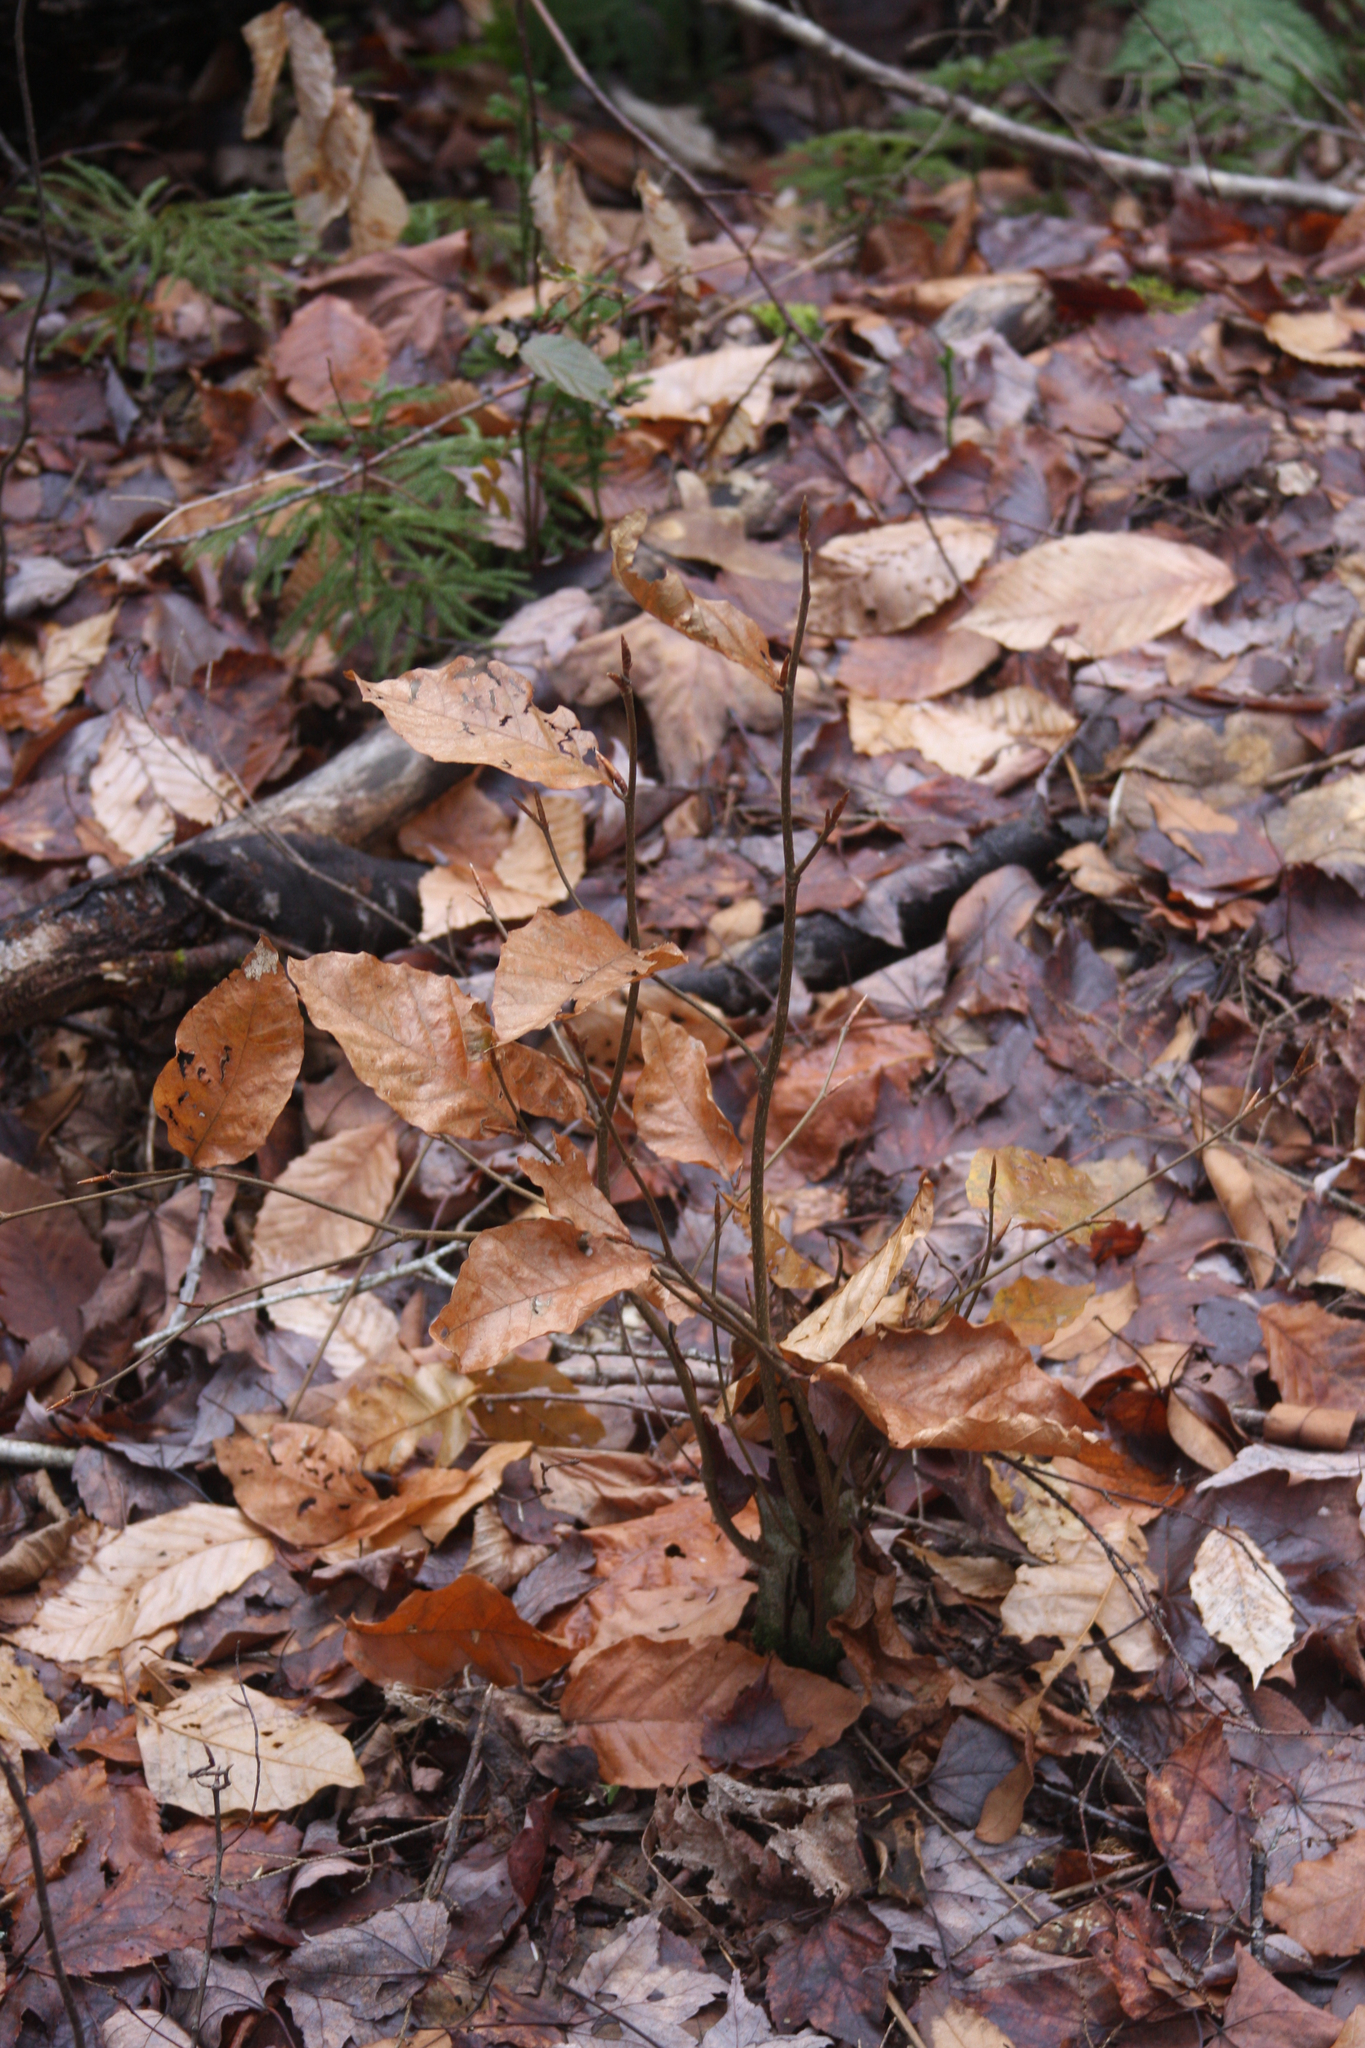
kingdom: Plantae
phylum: Tracheophyta
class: Magnoliopsida
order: Fagales
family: Fagaceae
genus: Fagus
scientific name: Fagus grandifolia
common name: American beech
